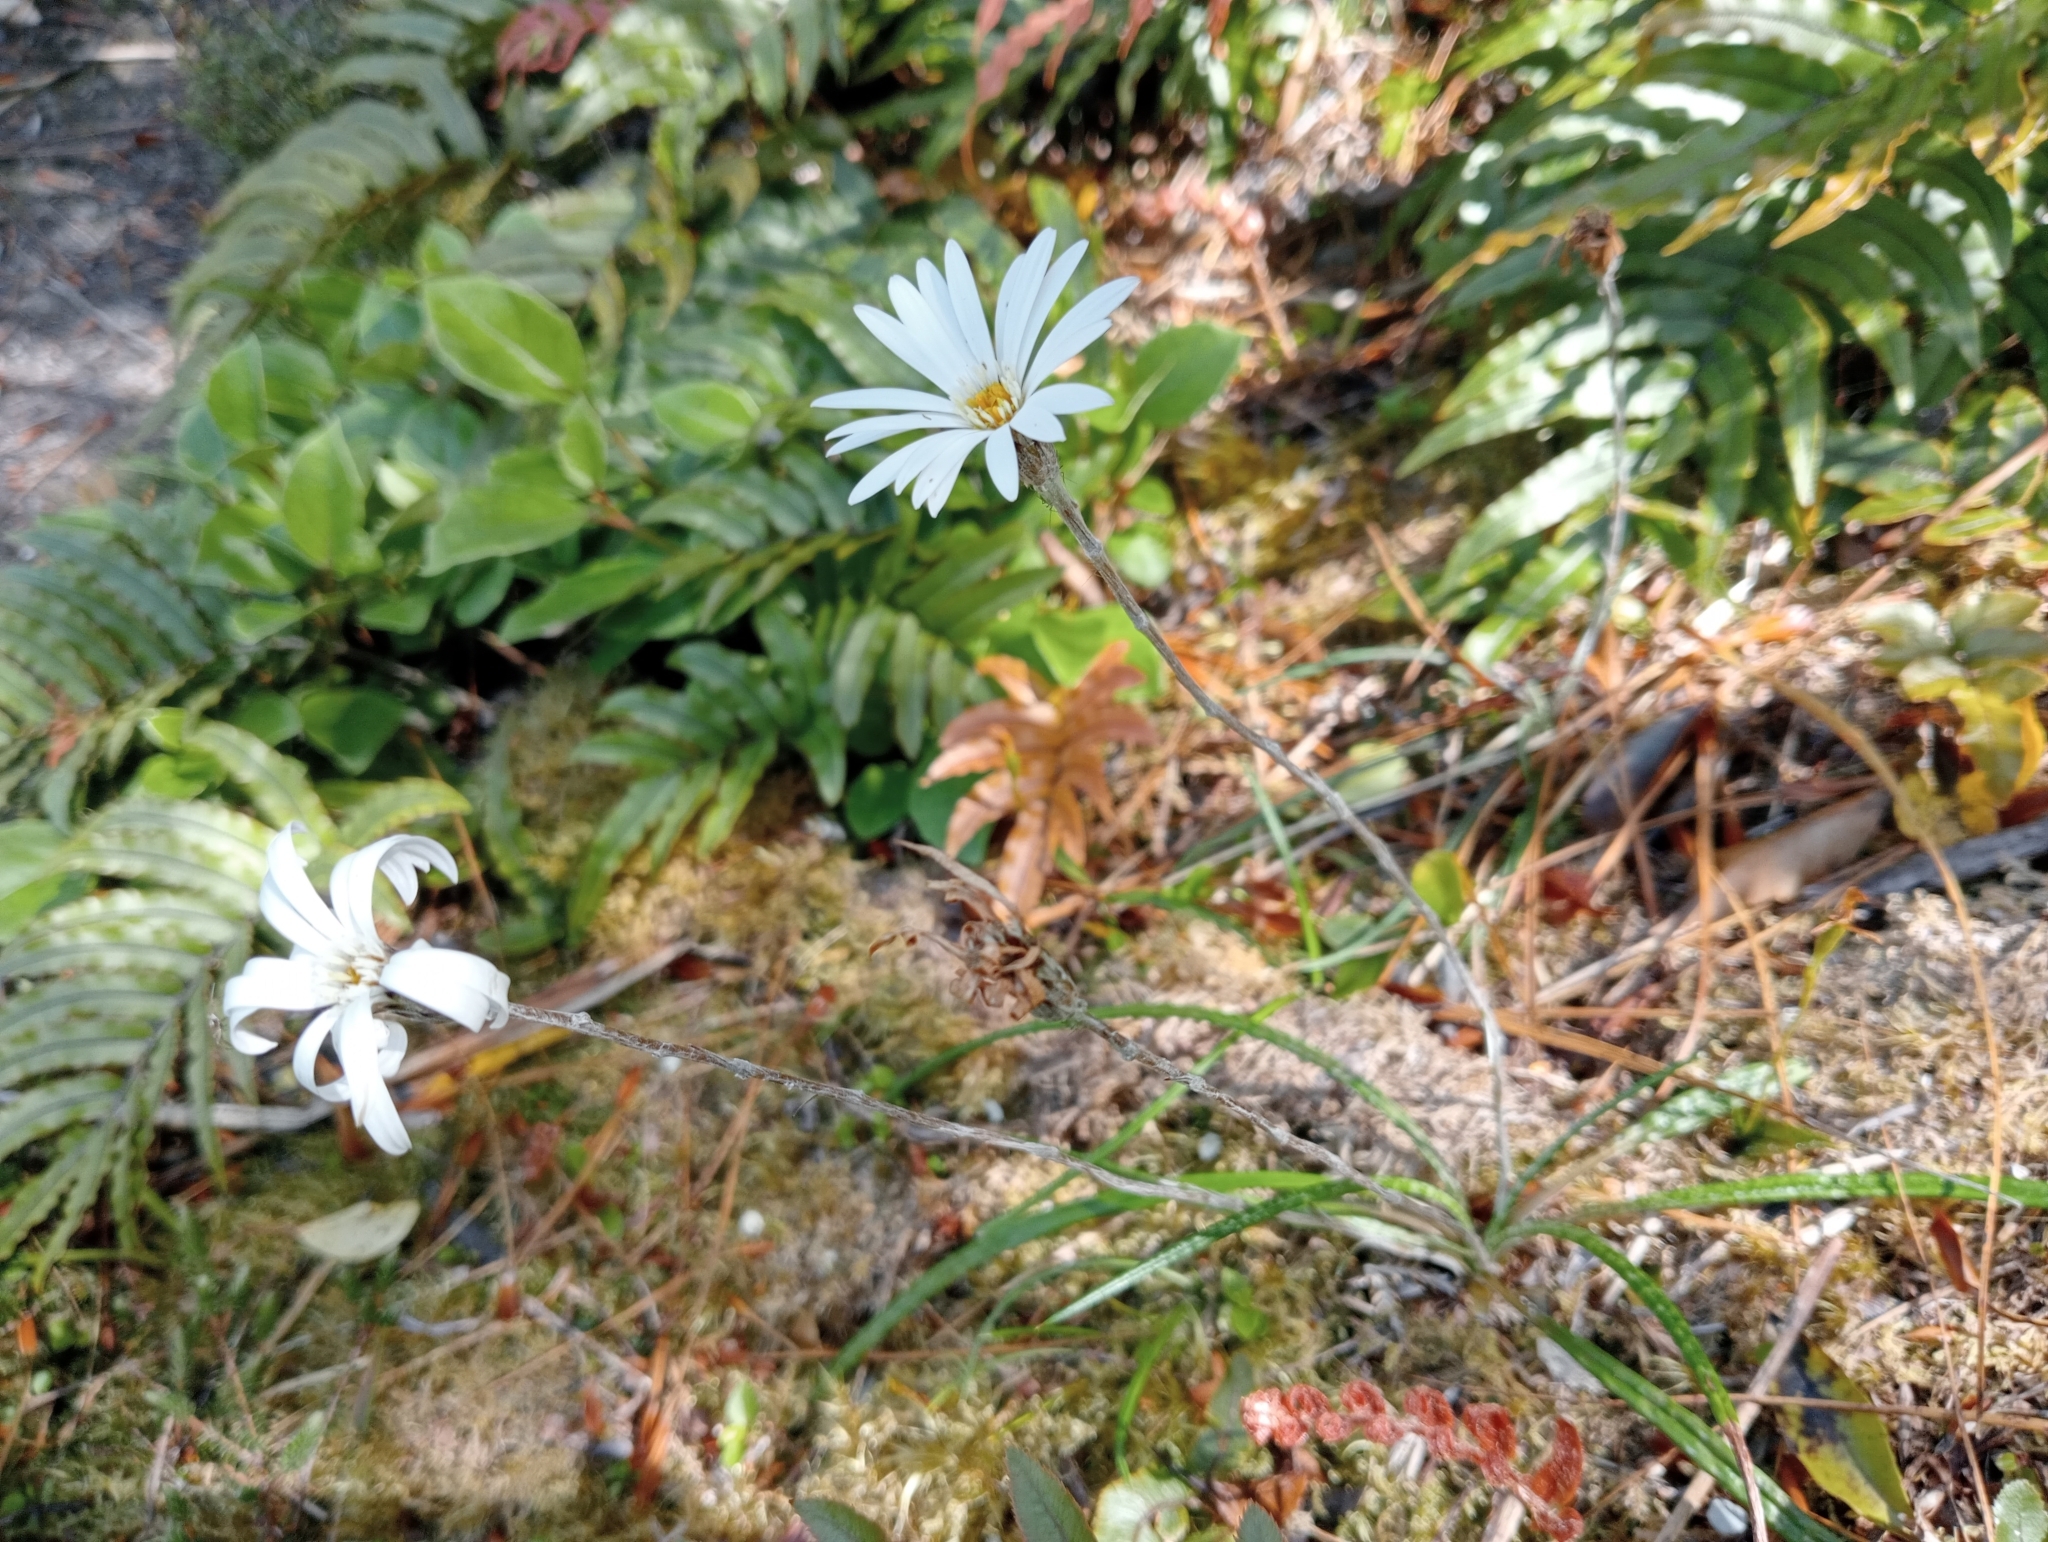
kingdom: Plantae
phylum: Tracheophyta
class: Magnoliopsida
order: Asterales
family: Asteraceae
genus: Celmisia
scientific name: Celmisia gracilenta
